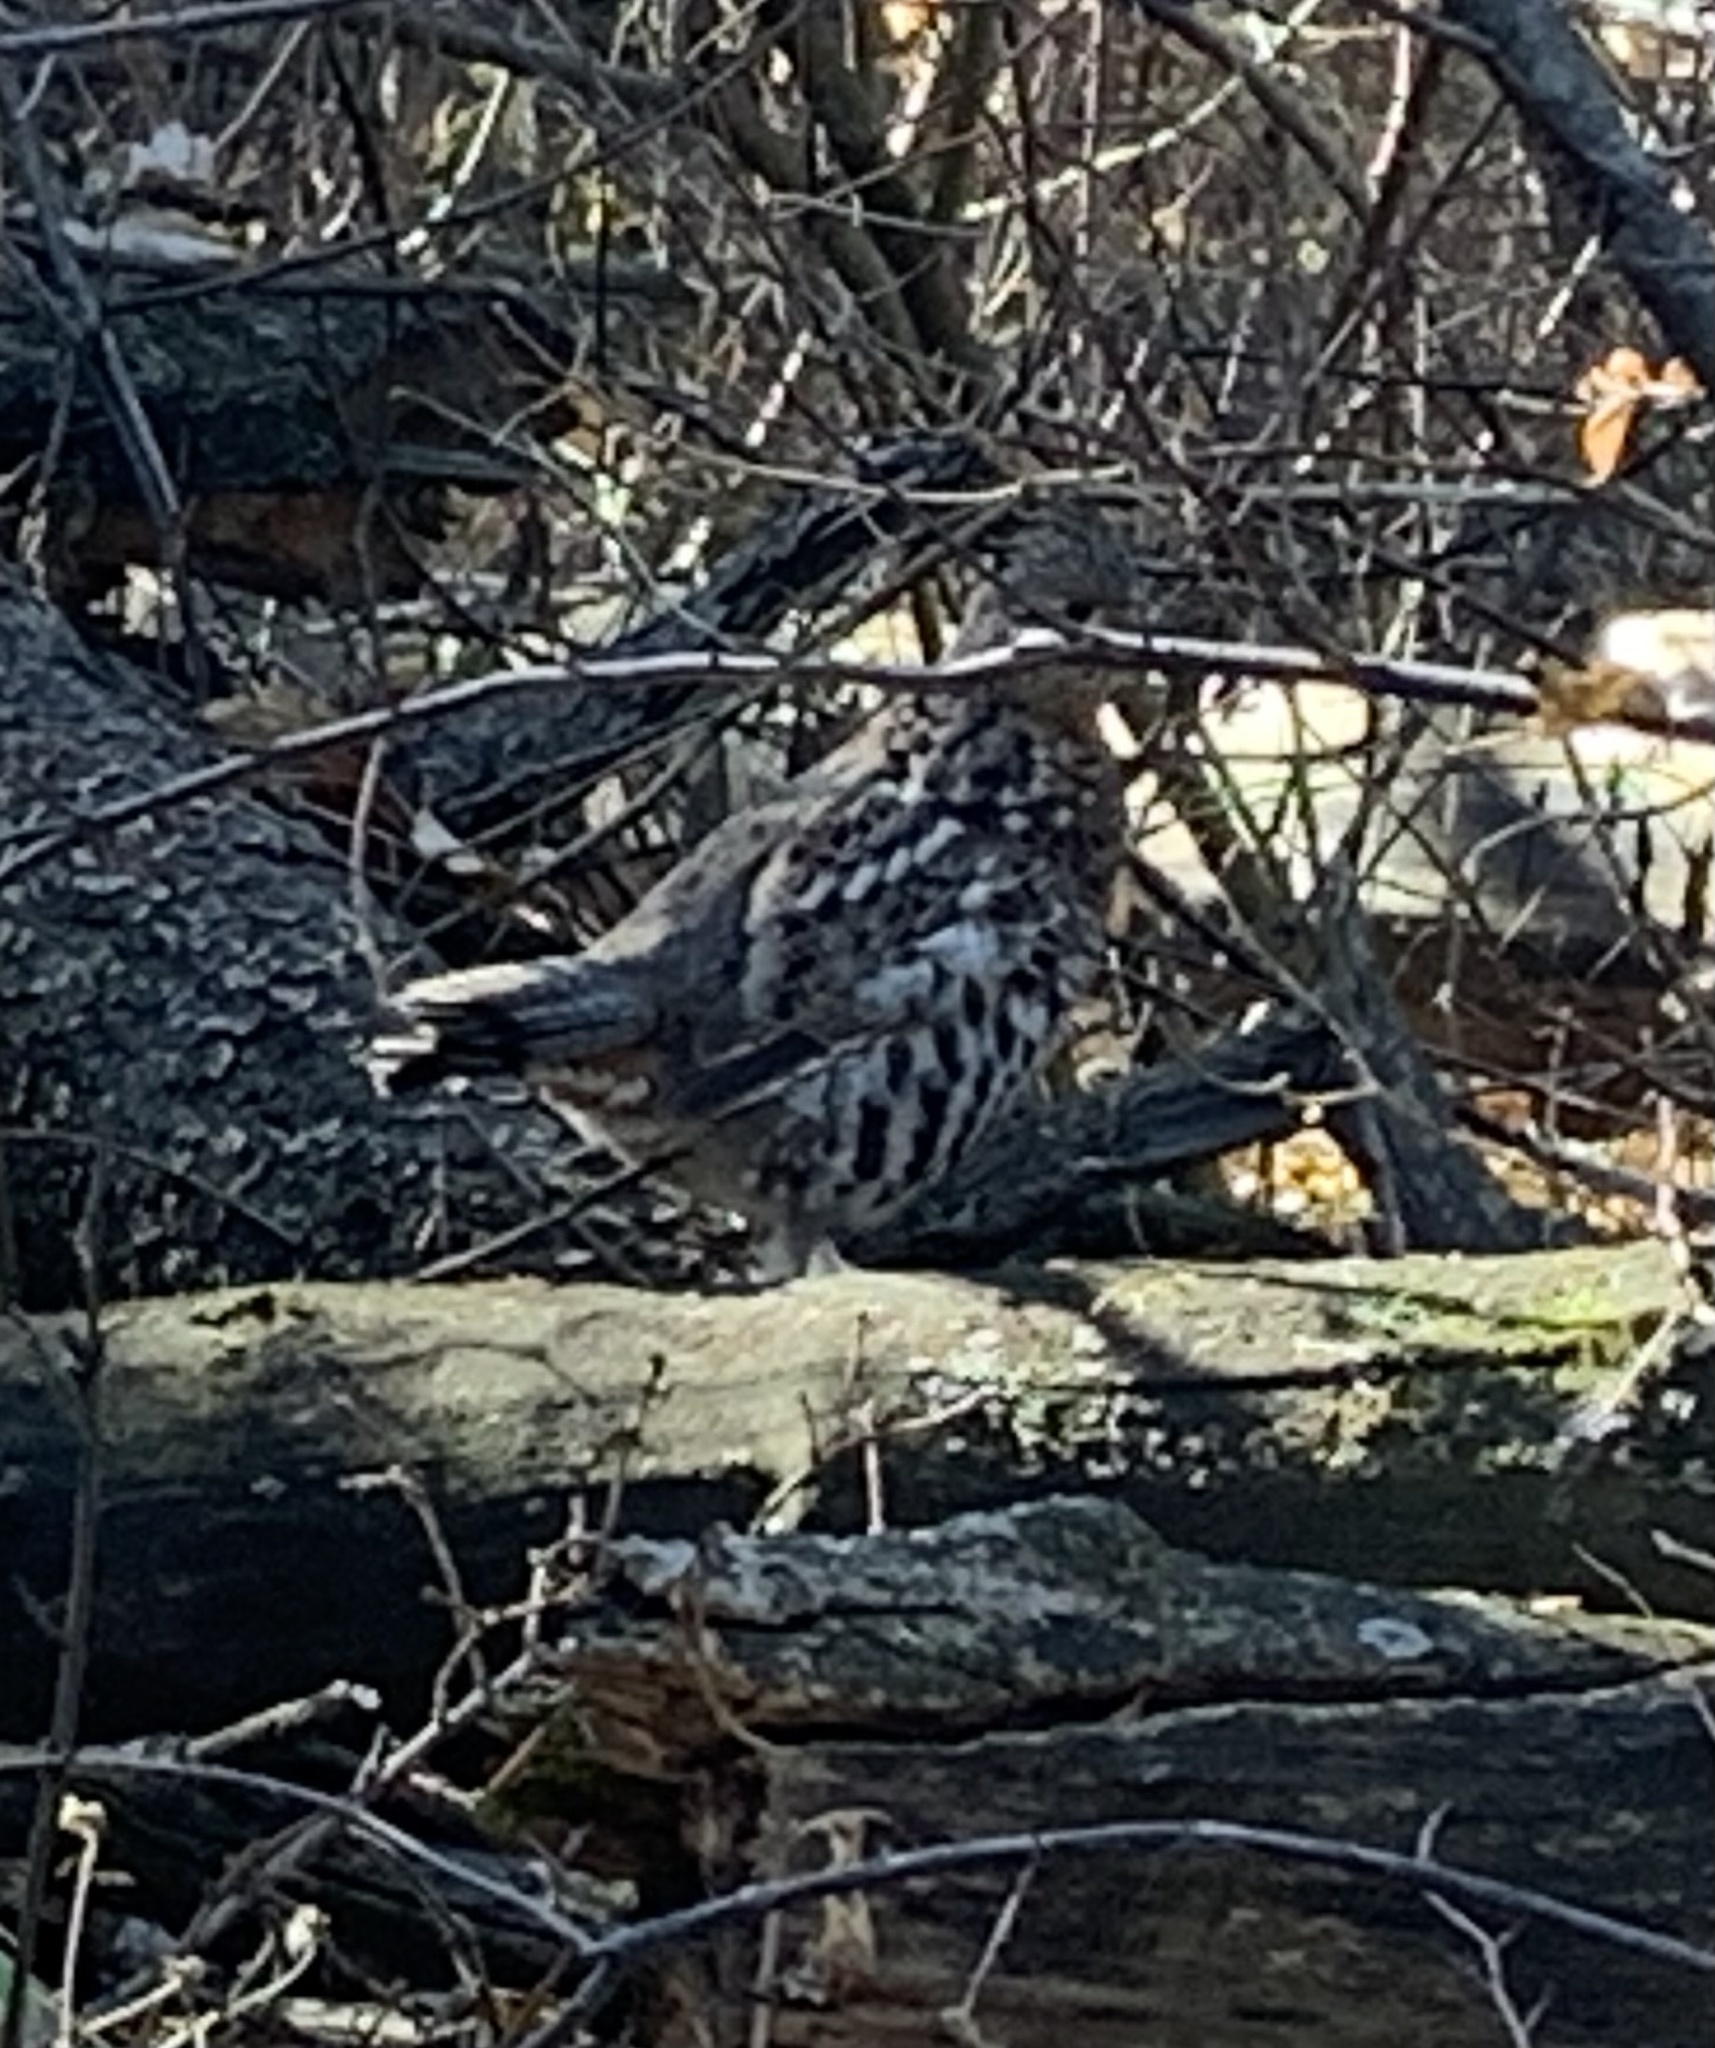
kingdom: Animalia
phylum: Chordata
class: Aves
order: Galliformes
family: Phasianidae
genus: Bonasa
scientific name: Bonasa umbellus
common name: Ruffed grouse
